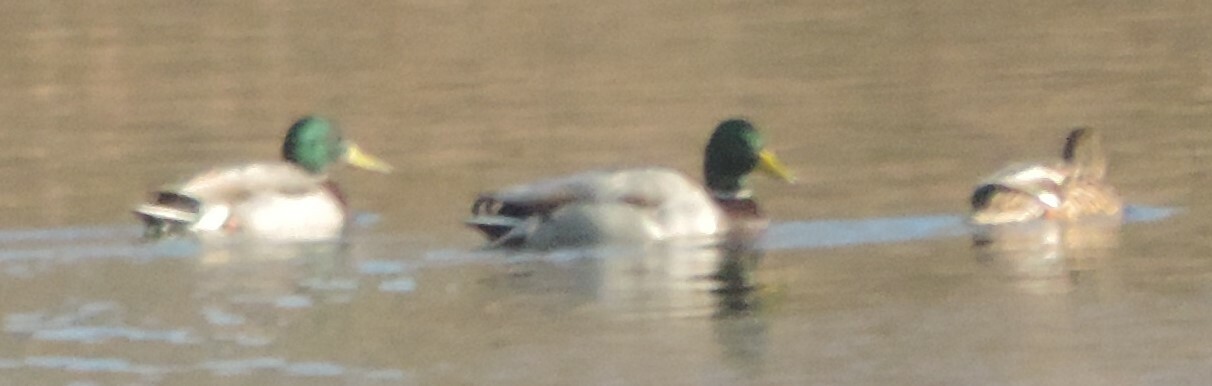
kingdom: Animalia
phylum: Chordata
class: Aves
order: Anseriformes
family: Anatidae
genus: Anas
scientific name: Anas platyrhynchos
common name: Mallard
